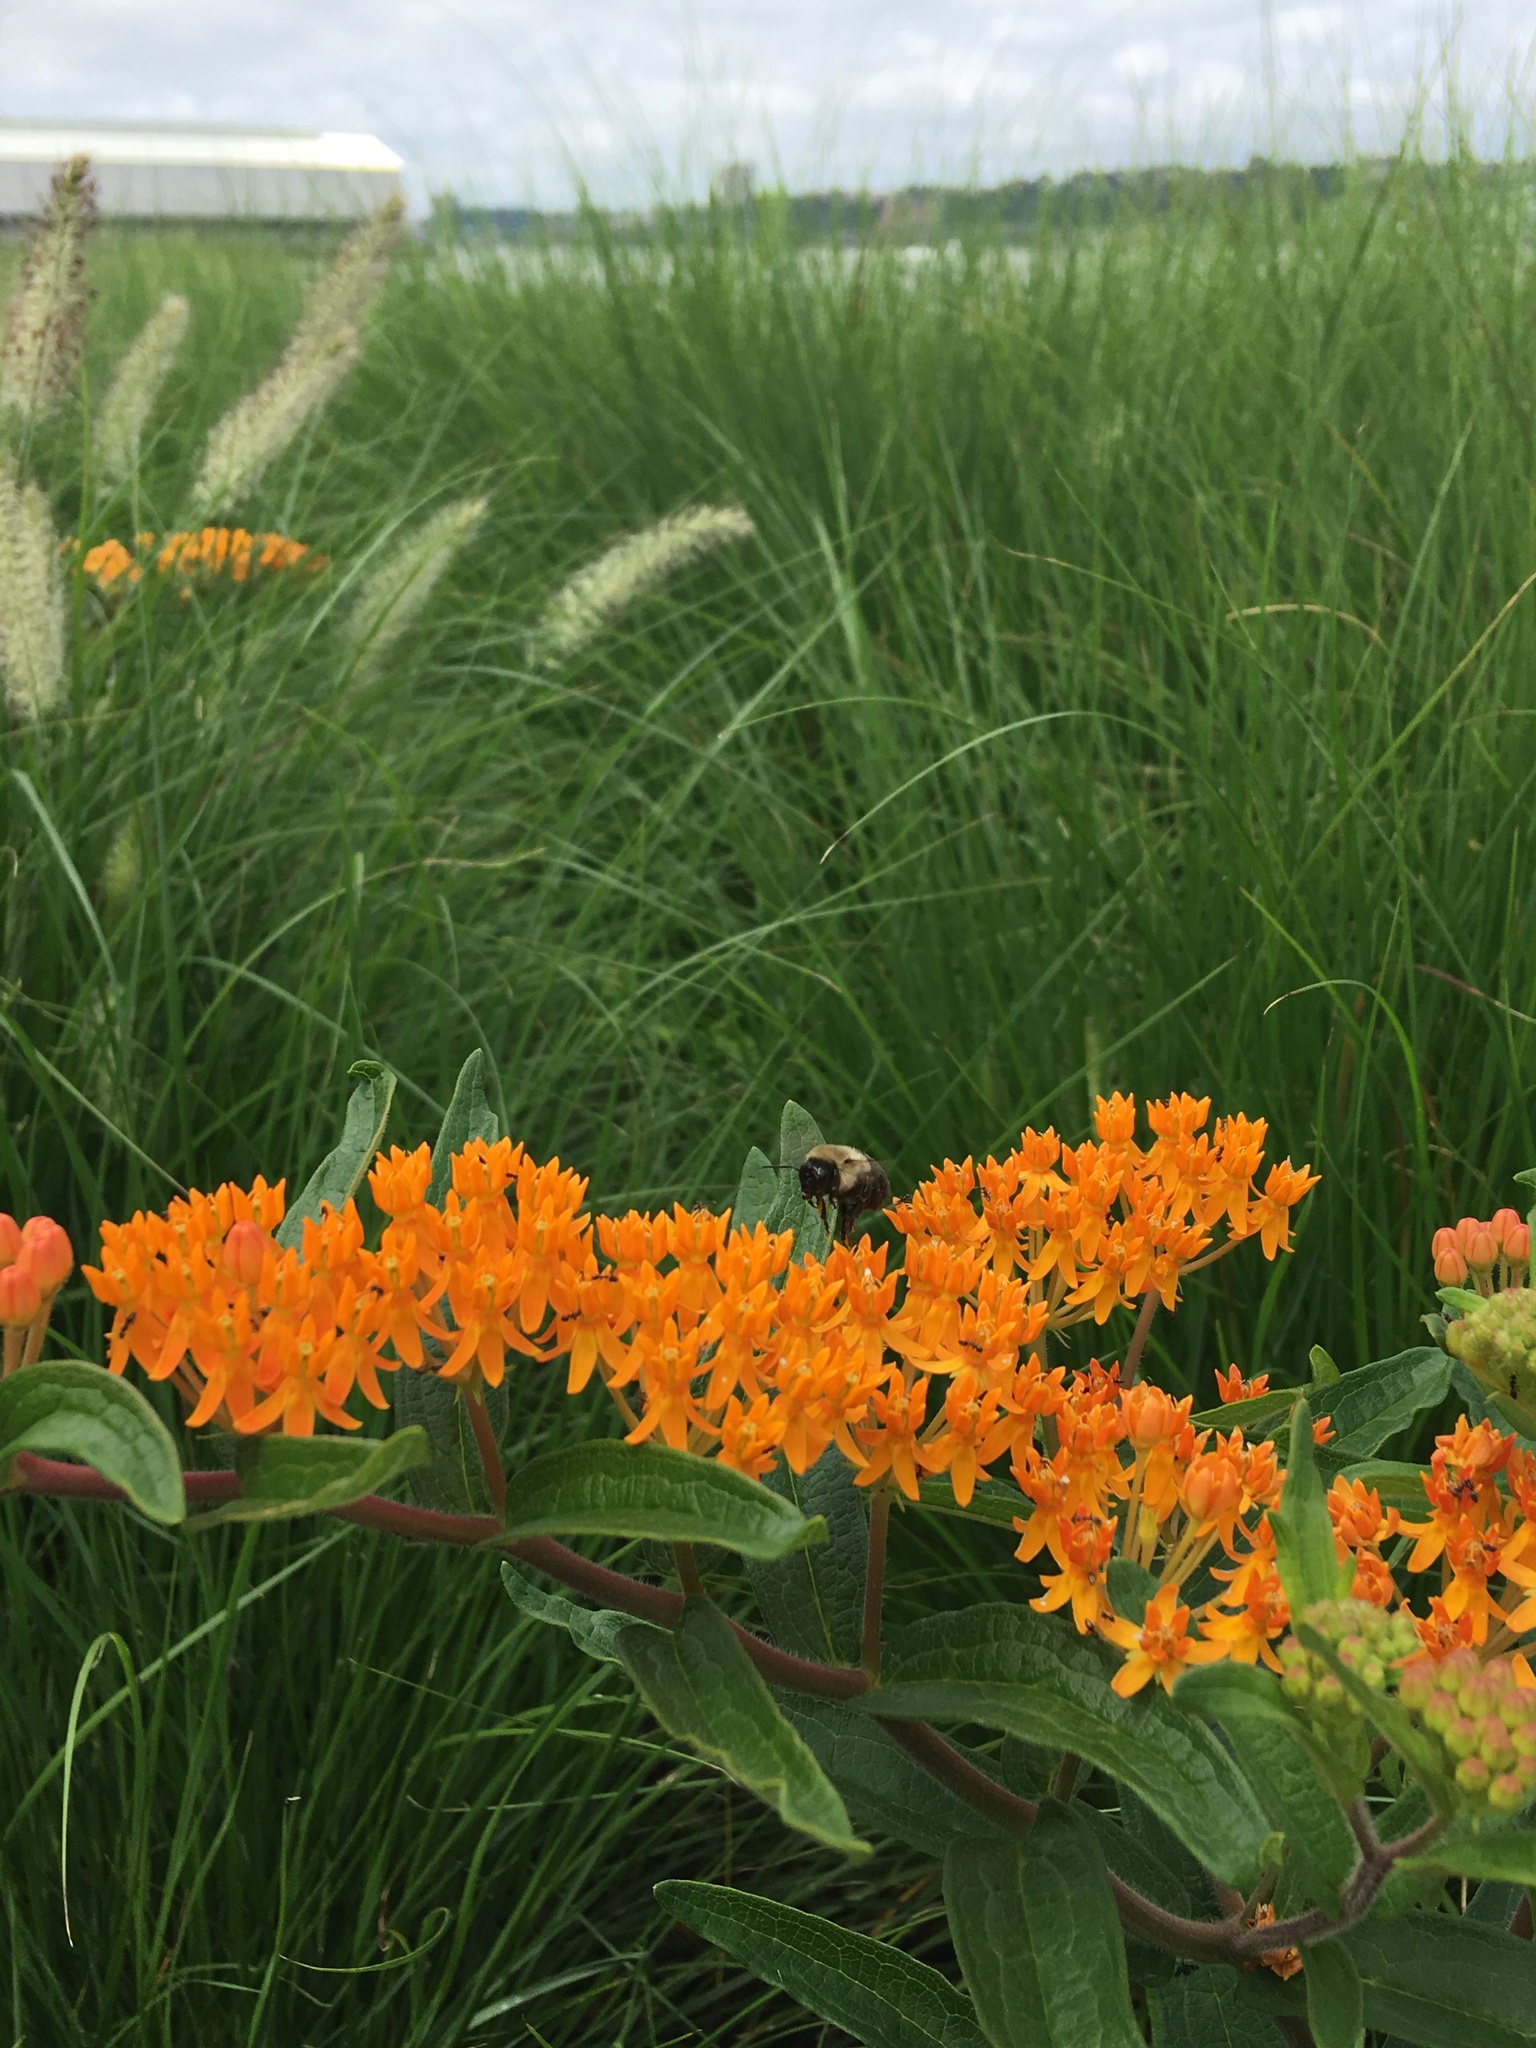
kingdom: Plantae
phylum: Tracheophyta
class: Magnoliopsida
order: Gentianales
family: Apocynaceae
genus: Asclepias
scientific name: Asclepias tuberosa
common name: Butterfly milkweed
